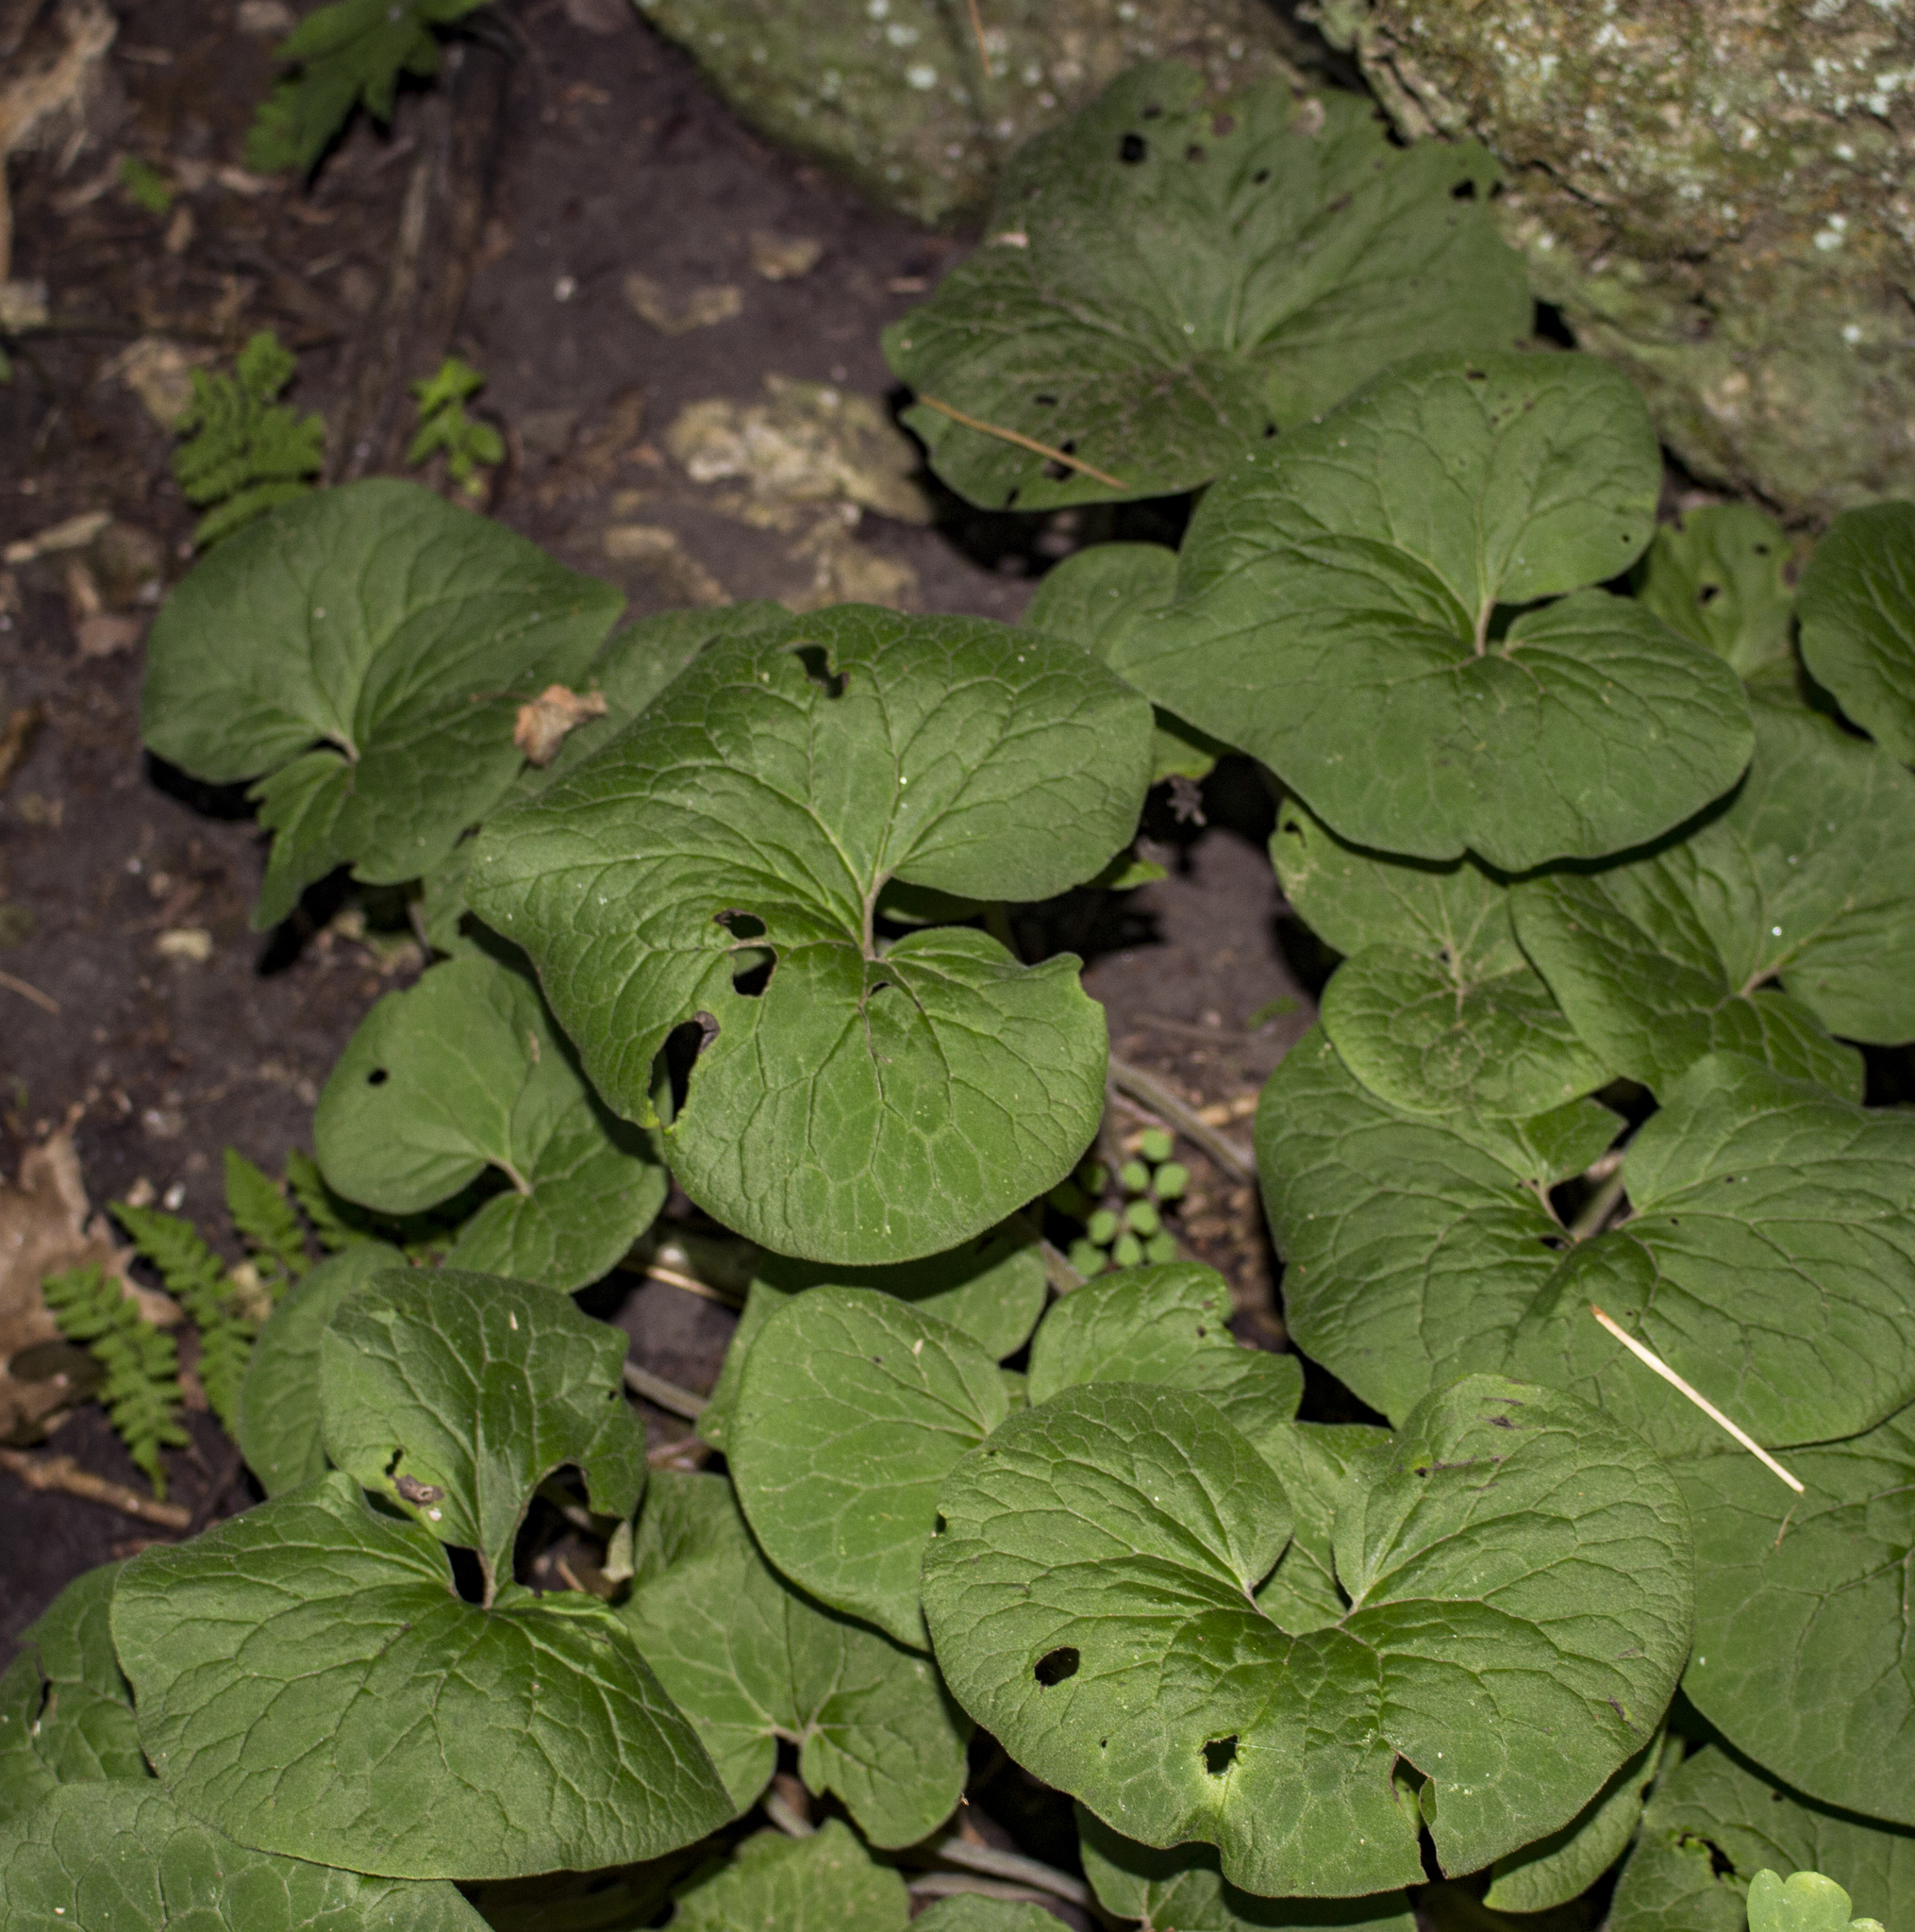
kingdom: Plantae
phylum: Tracheophyta
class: Magnoliopsida
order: Piperales
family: Aristolochiaceae
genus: Asarum
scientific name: Asarum canadense
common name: Wild ginger
